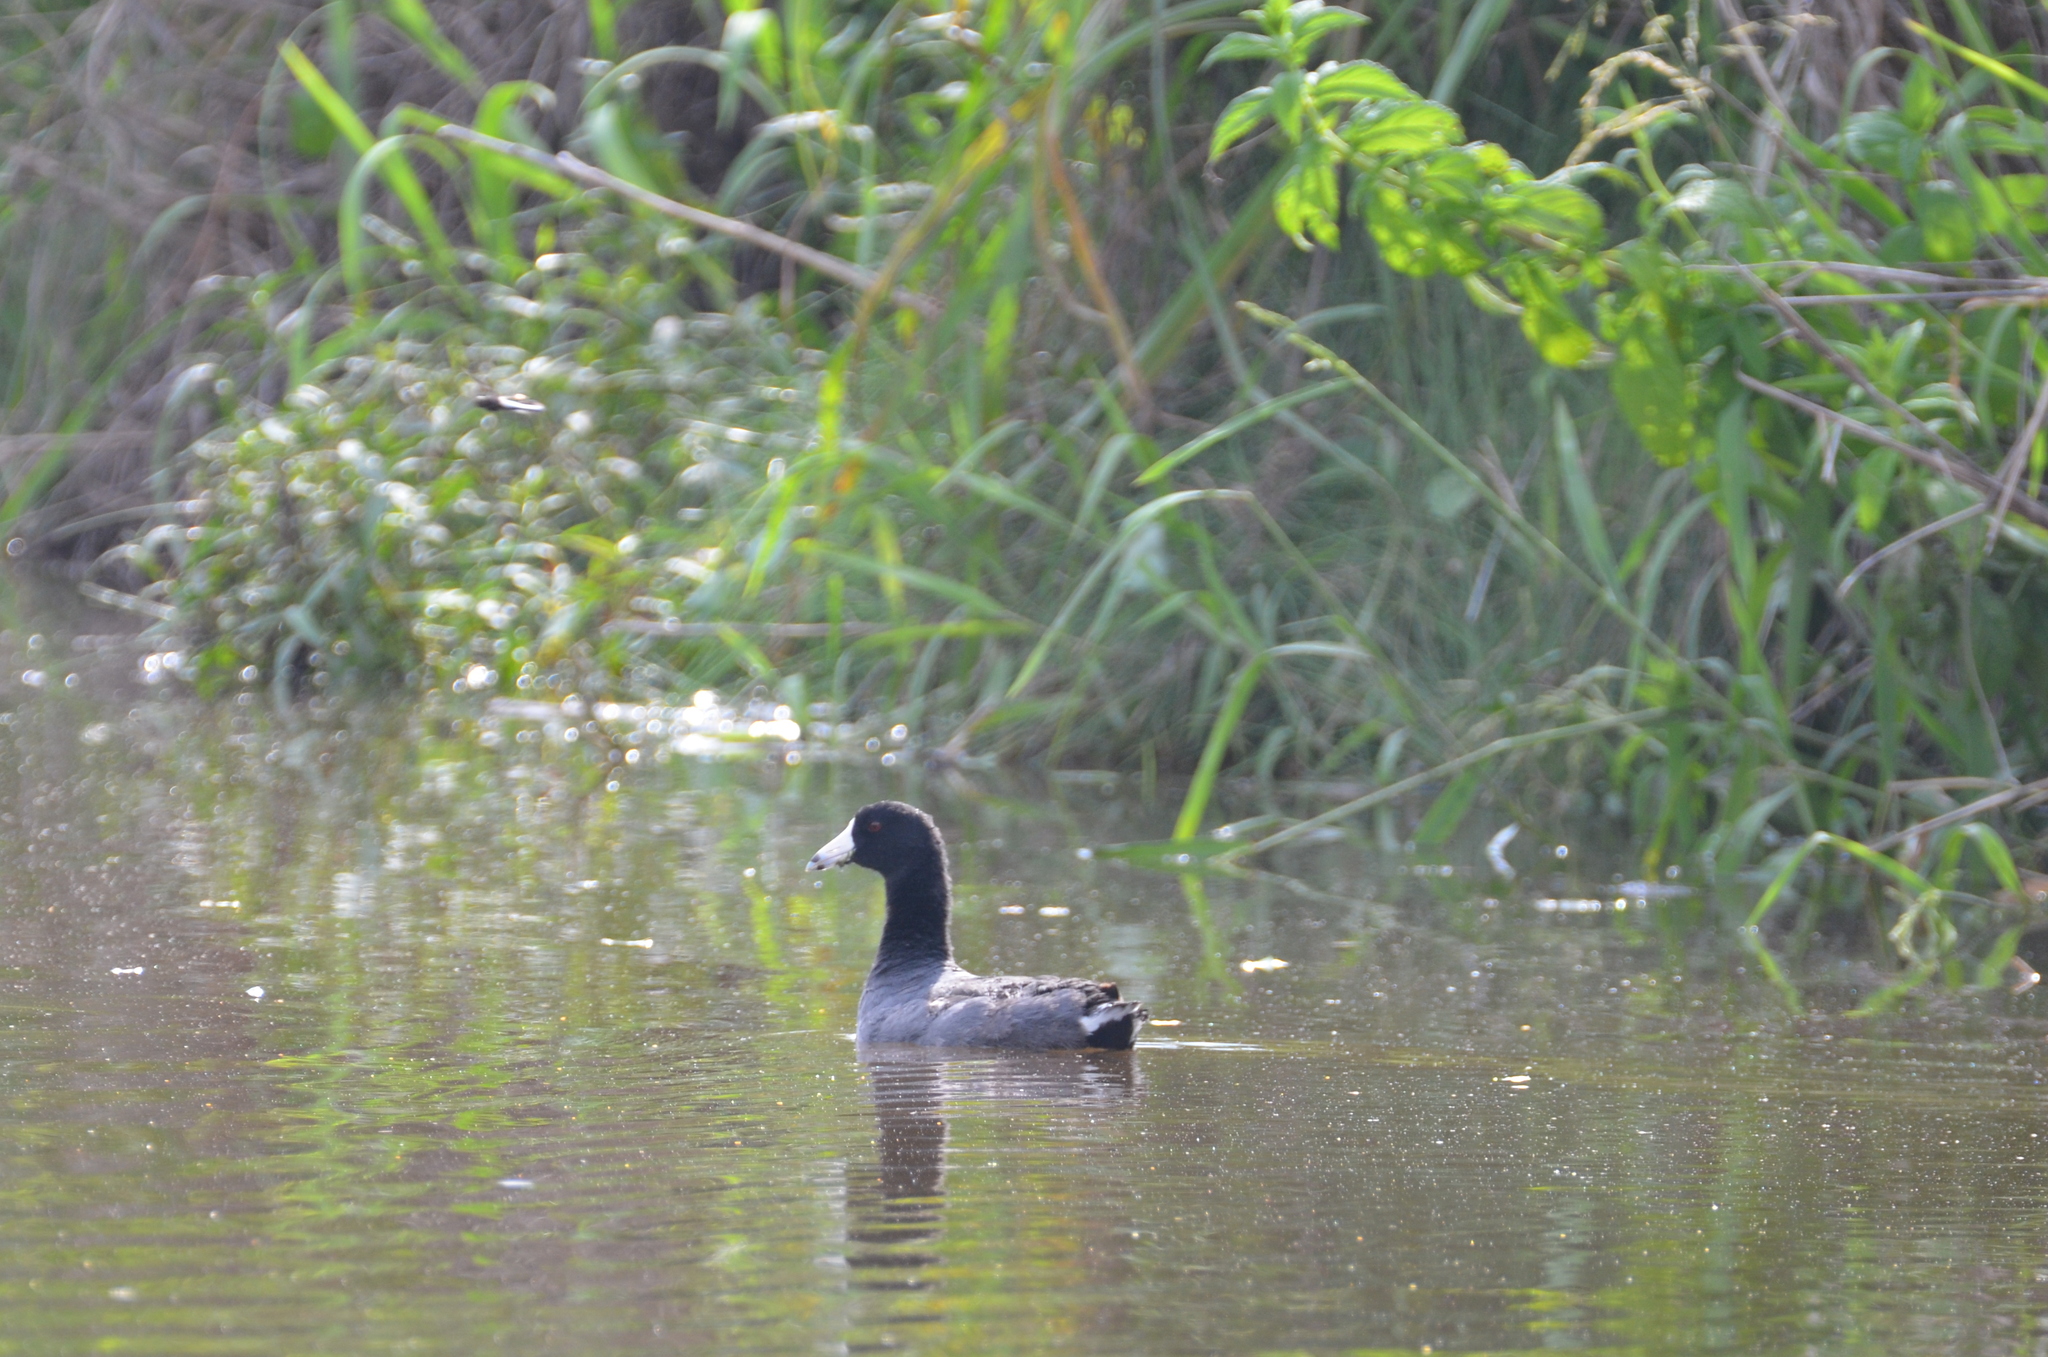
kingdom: Animalia
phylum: Chordata
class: Aves
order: Gruiformes
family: Rallidae
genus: Fulica
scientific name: Fulica americana
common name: American coot
